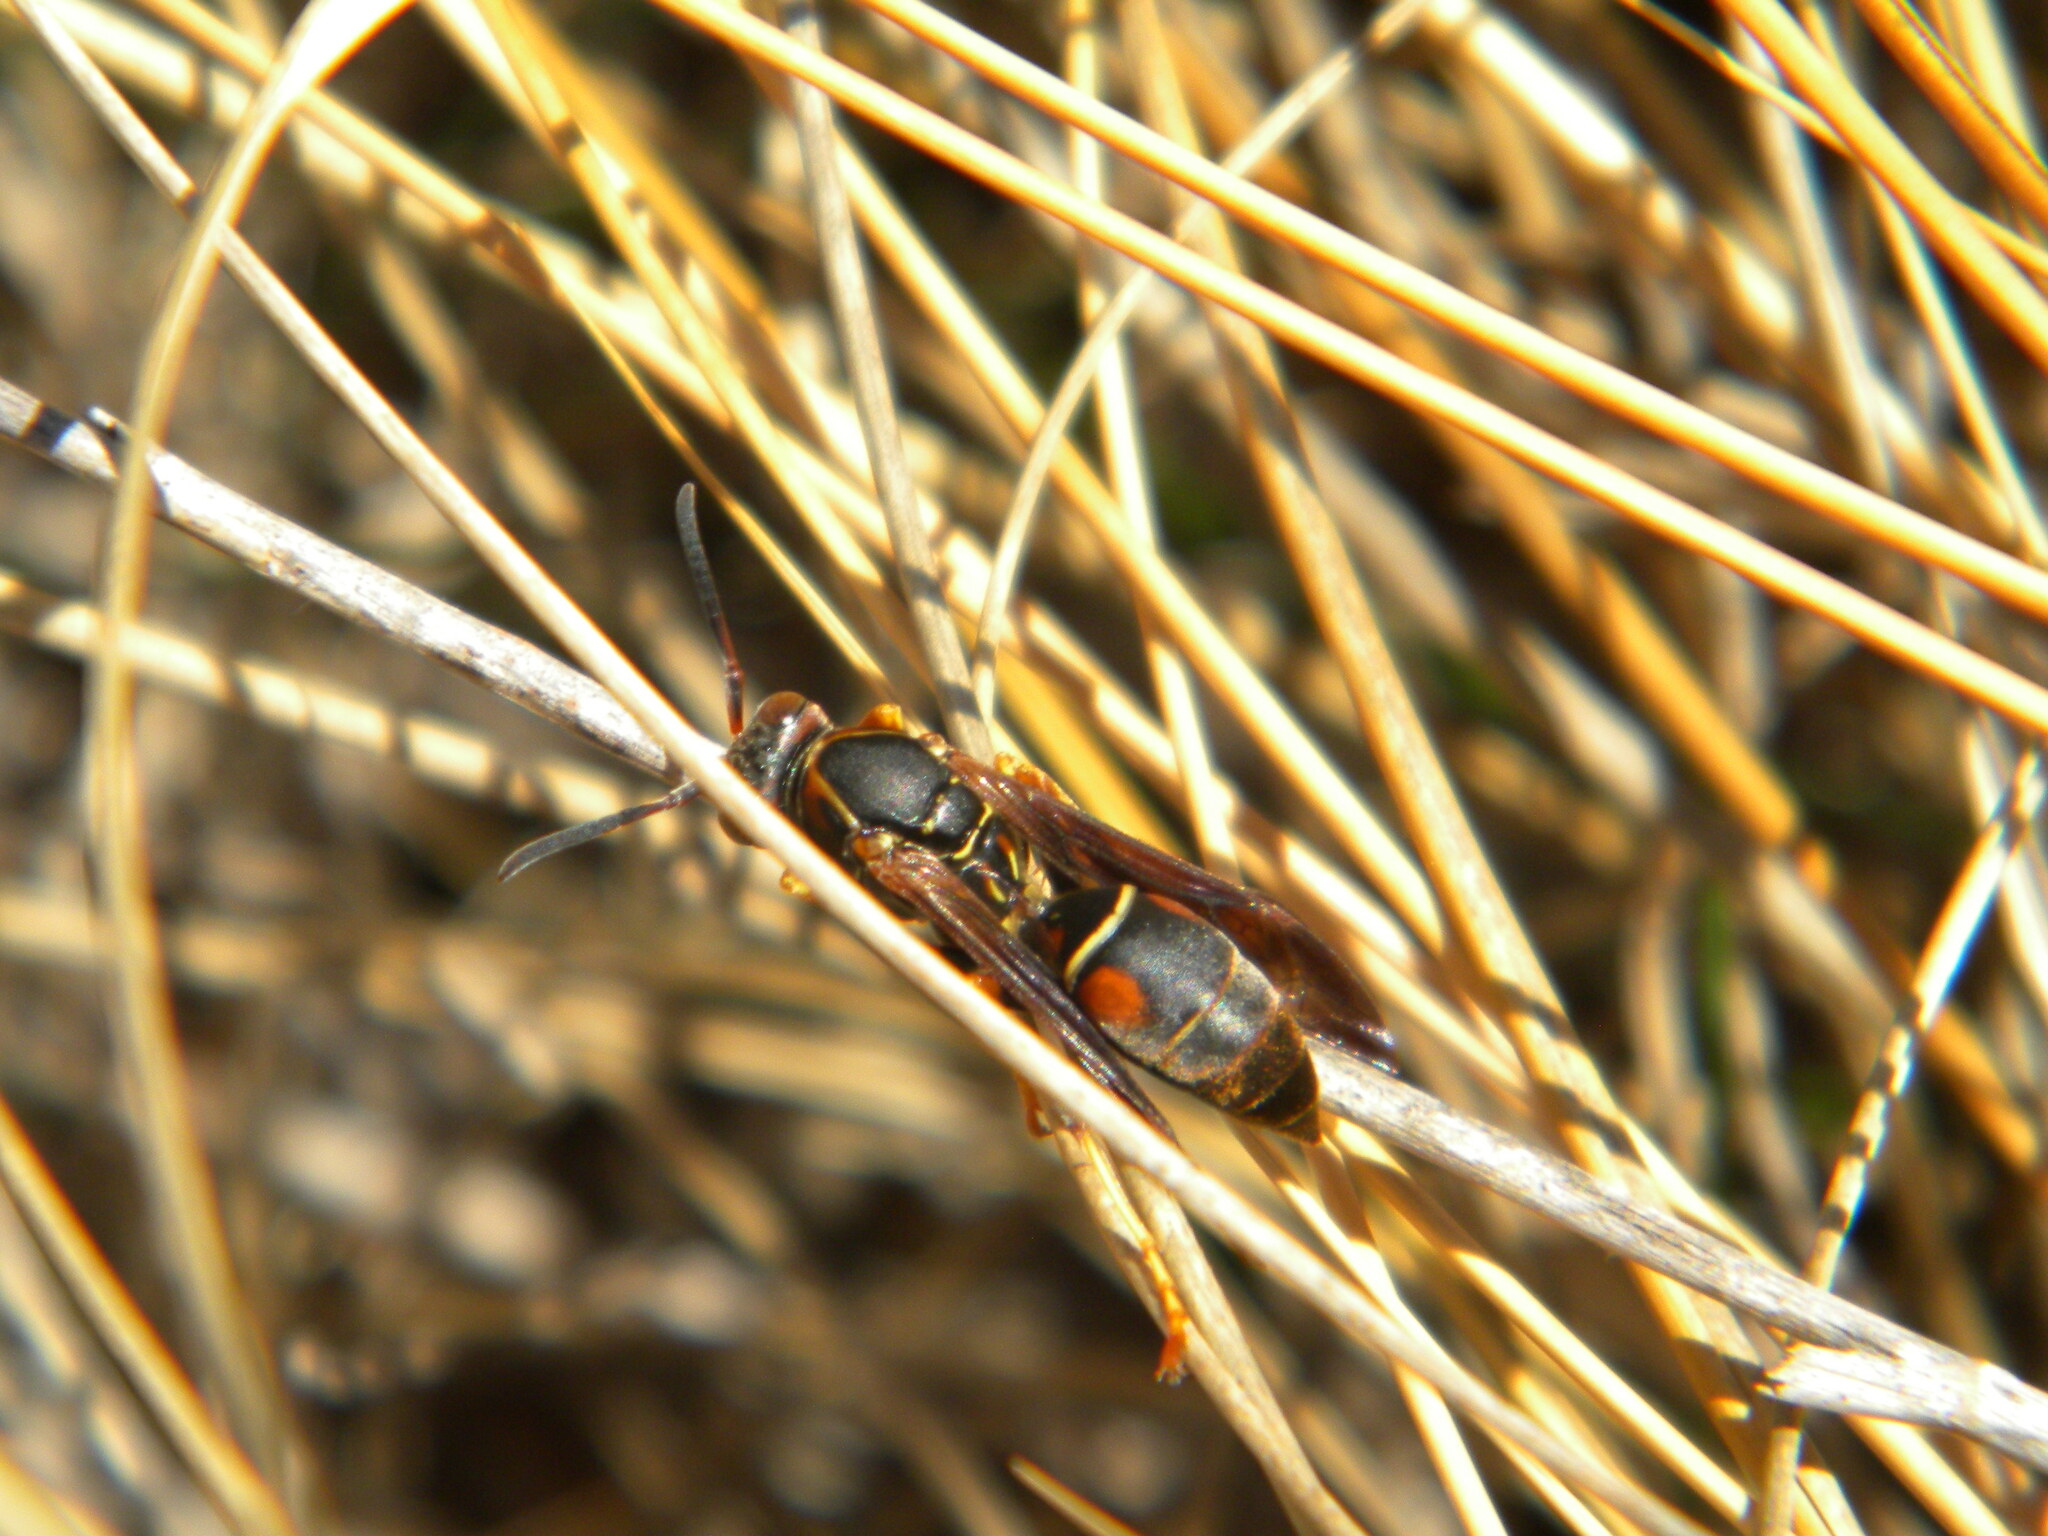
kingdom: Animalia
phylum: Arthropoda
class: Insecta
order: Hymenoptera
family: Eumenidae
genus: Polistes
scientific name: Polistes fuscatus
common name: Dark paper wasp
